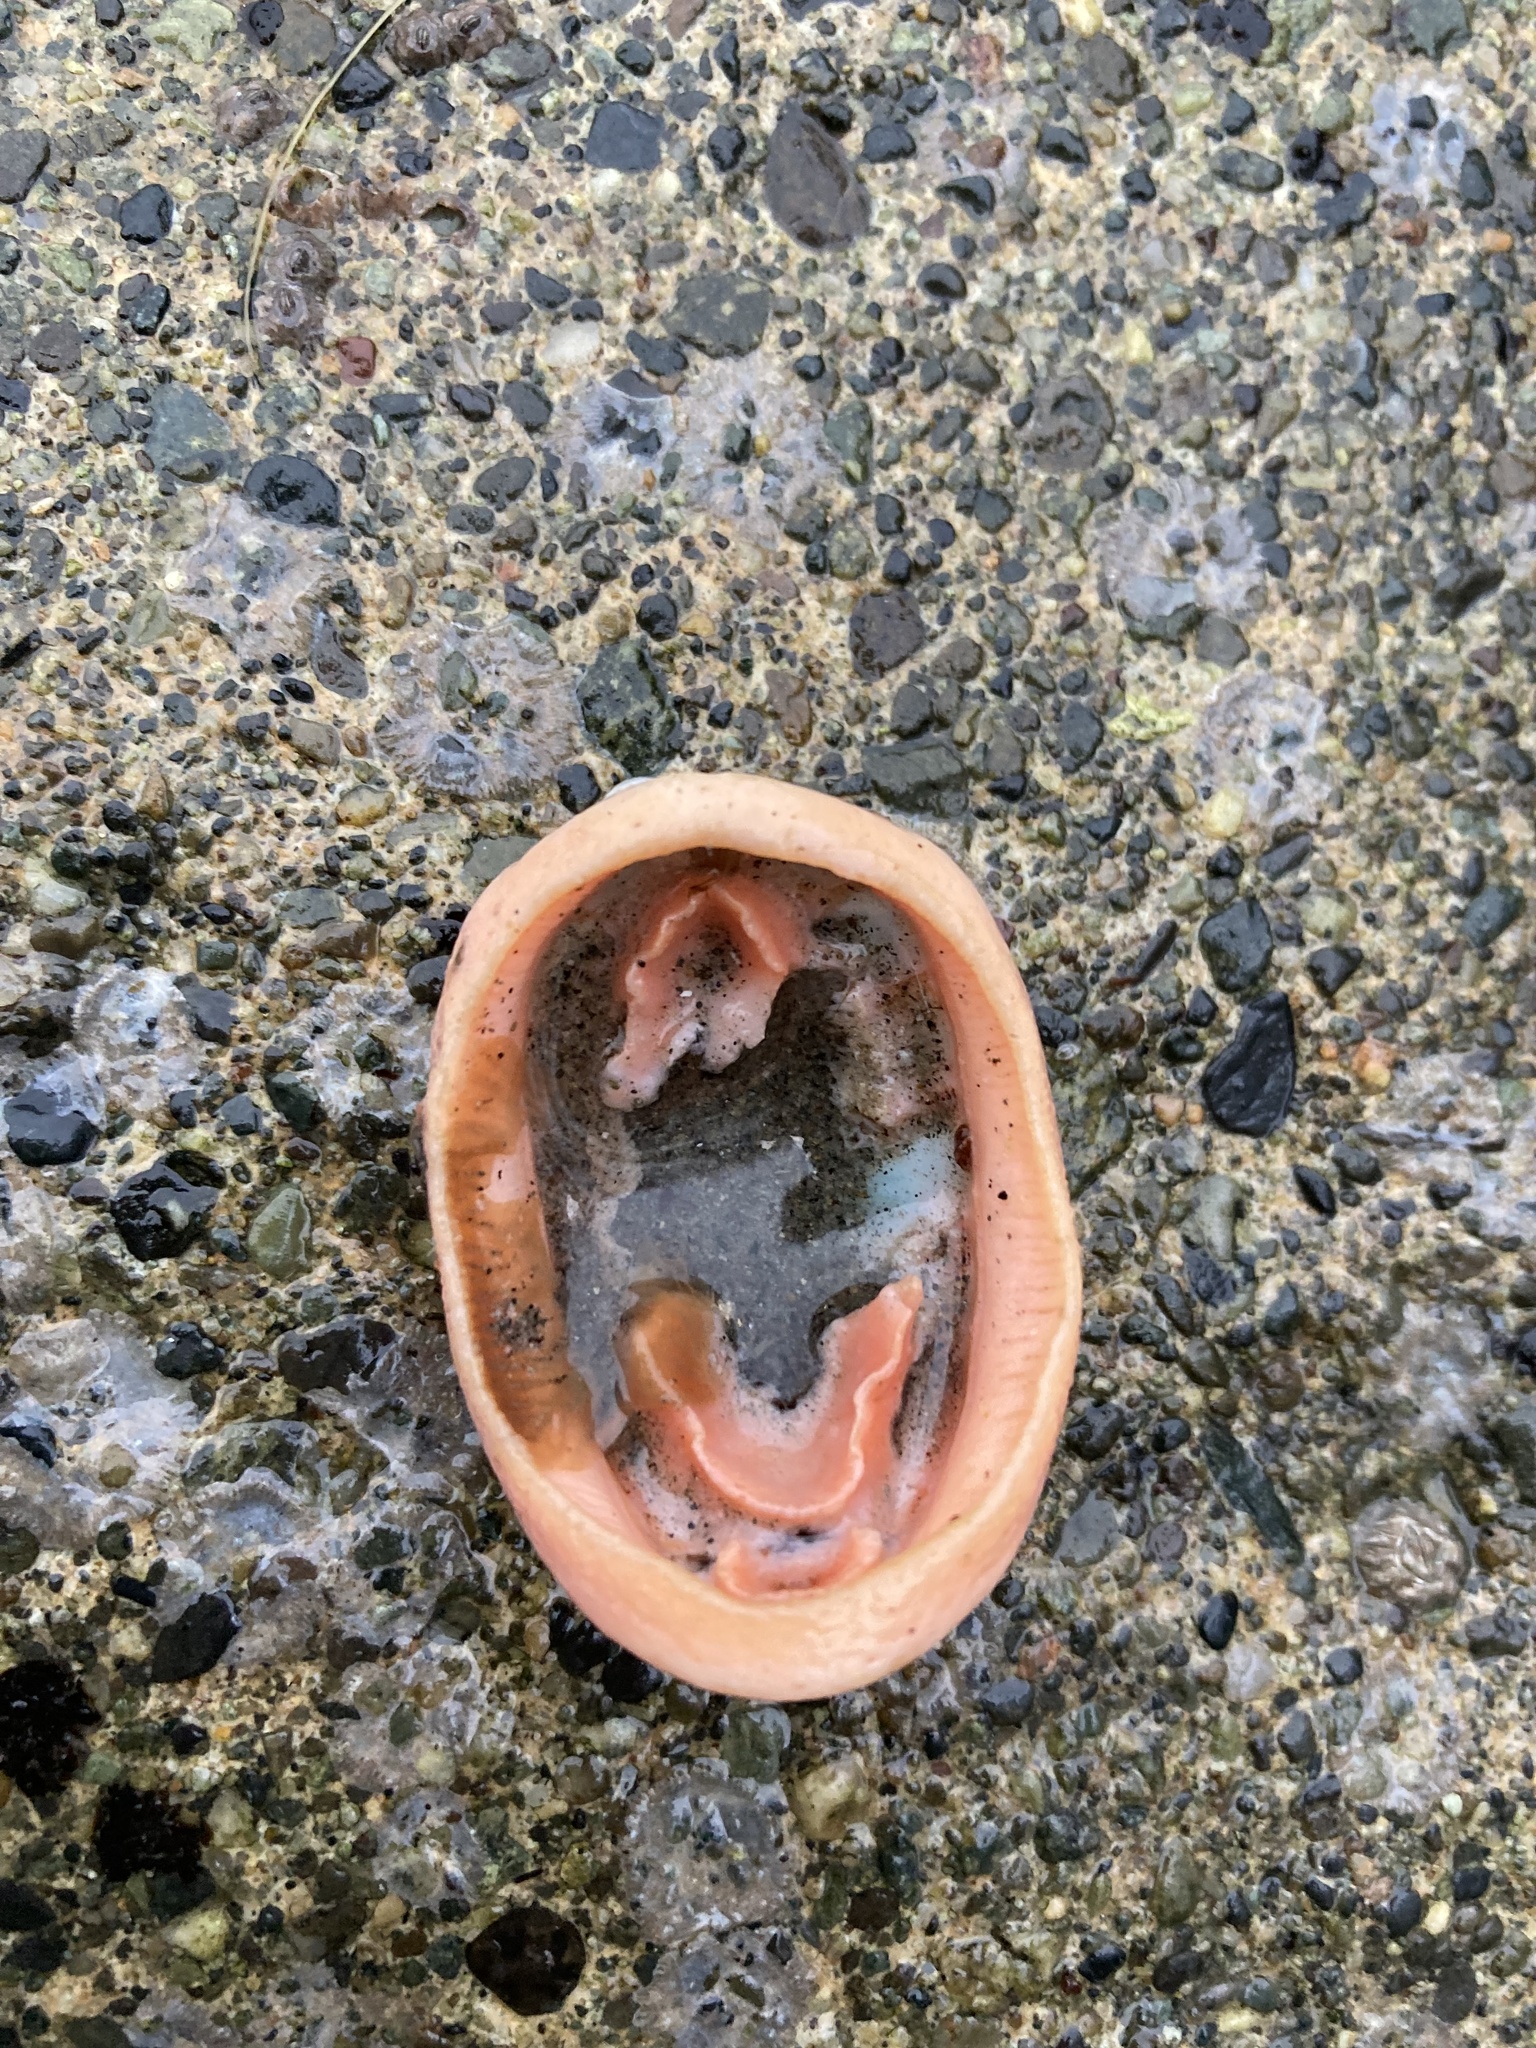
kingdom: Animalia
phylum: Mollusca
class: Polyplacophora
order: Chitonida
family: Mopaliidae
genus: Mopalia
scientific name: Mopalia lignosa
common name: Woody chiton
